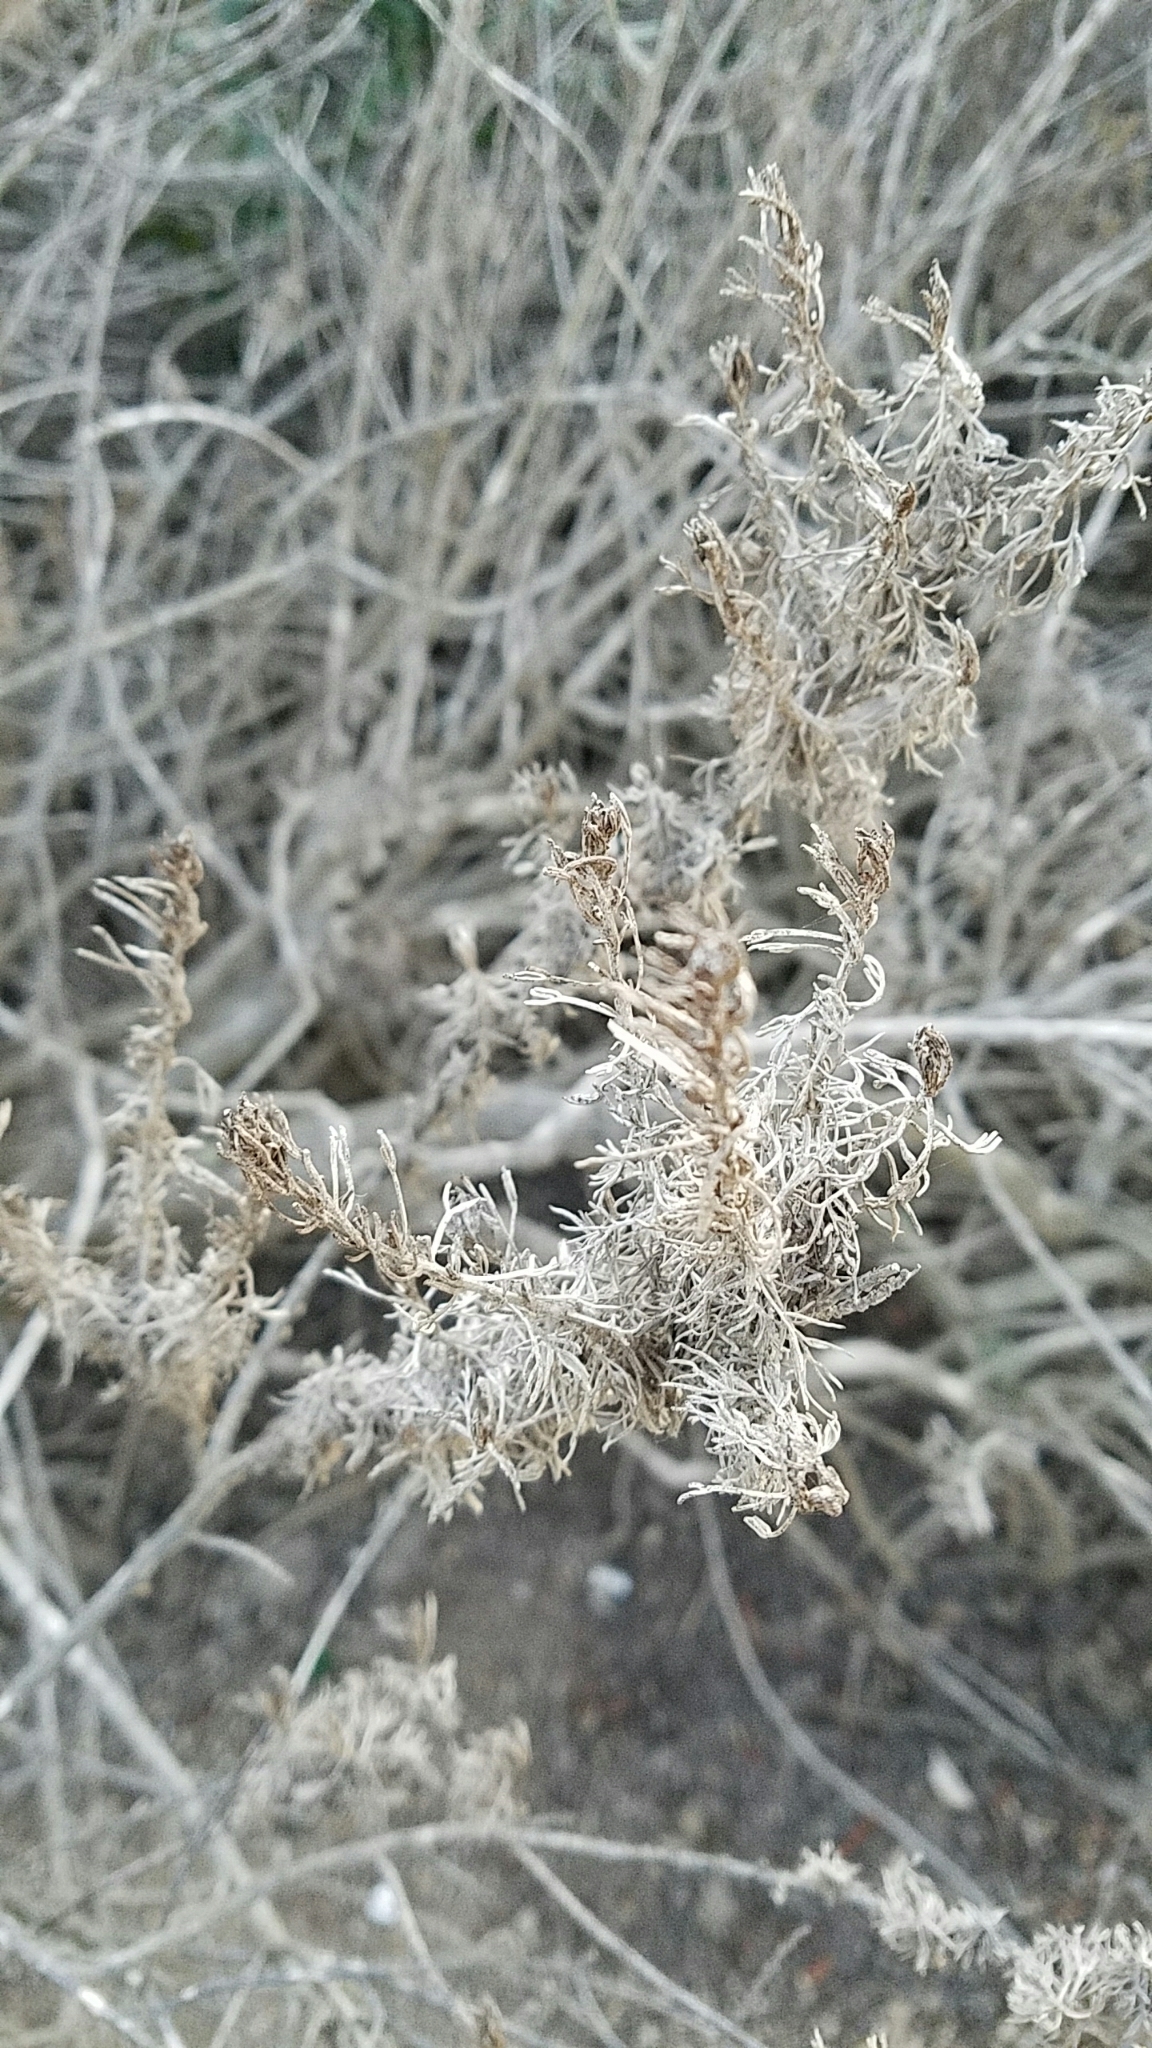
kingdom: Plantae
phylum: Tracheophyta
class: Magnoliopsida
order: Asterales
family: Asteraceae
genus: Artemisia
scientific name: Artemisia californica
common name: California sagebrush
